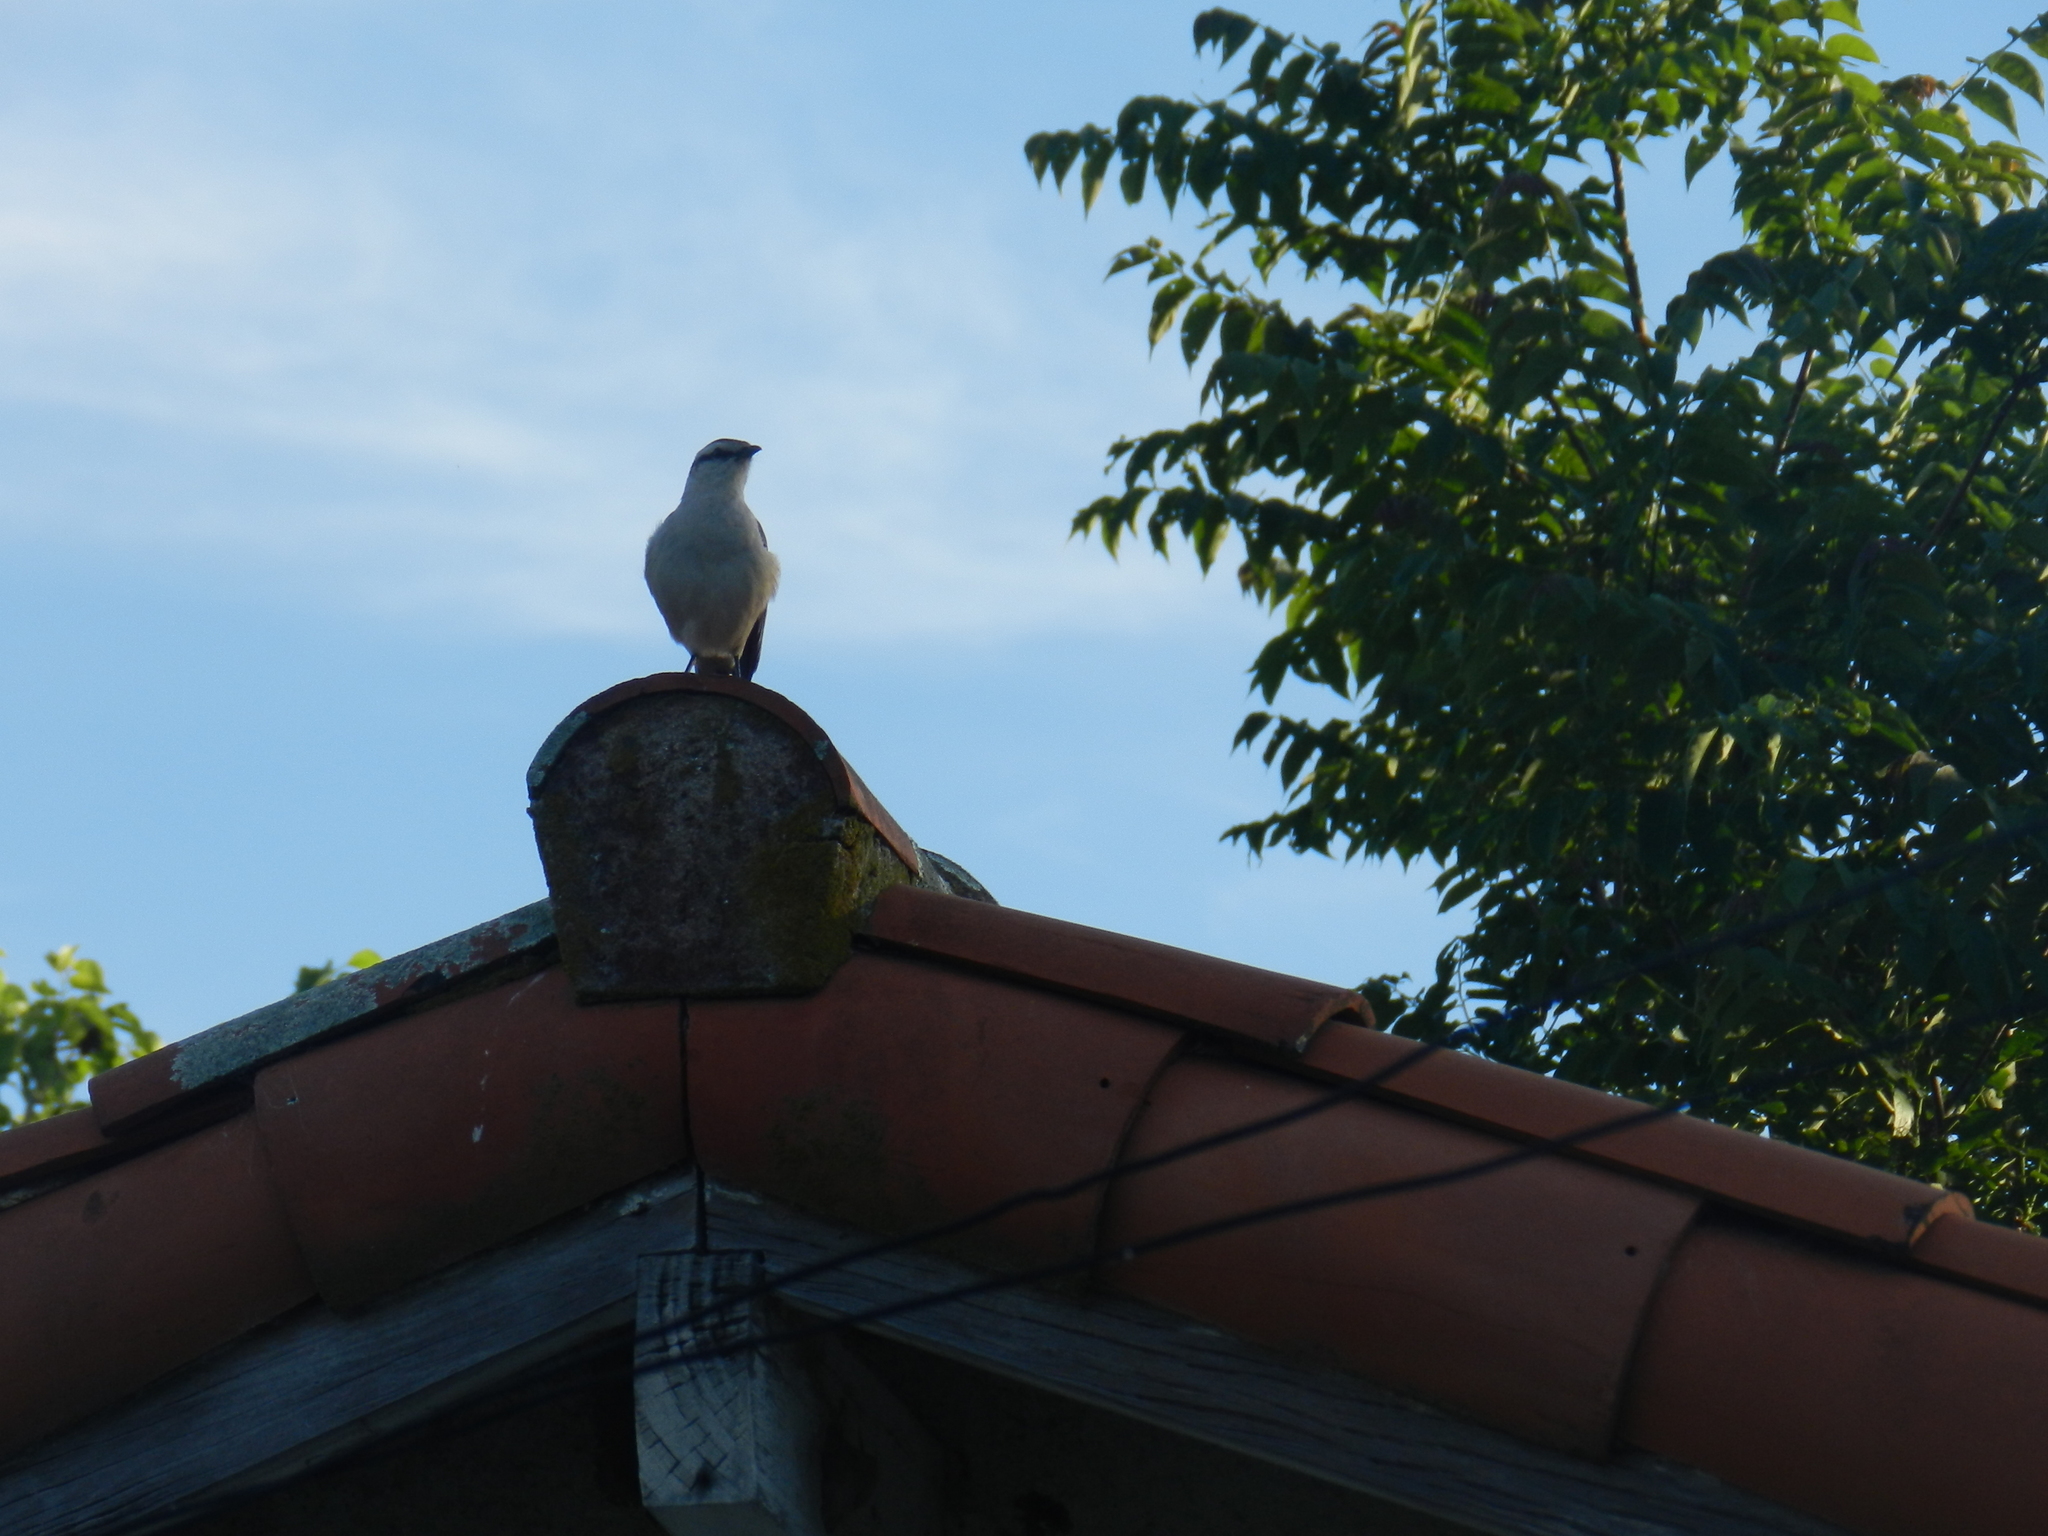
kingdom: Animalia
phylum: Chordata
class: Aves
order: Passeriformes
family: Mimidae
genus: Mimus
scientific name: Mimus saturninus
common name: Chalk-browed mockingbird
